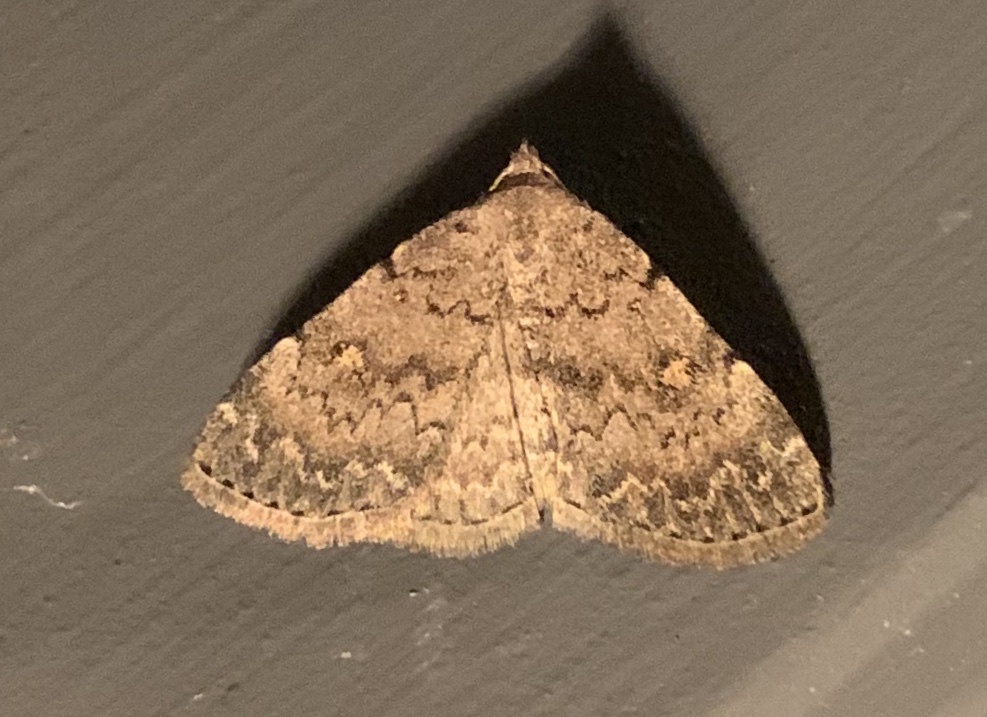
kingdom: Animalia
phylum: Arthropoda
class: Insecta
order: Lepidoptera
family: Erebidae
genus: Idia
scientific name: Idia aemula
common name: Common idia moth
